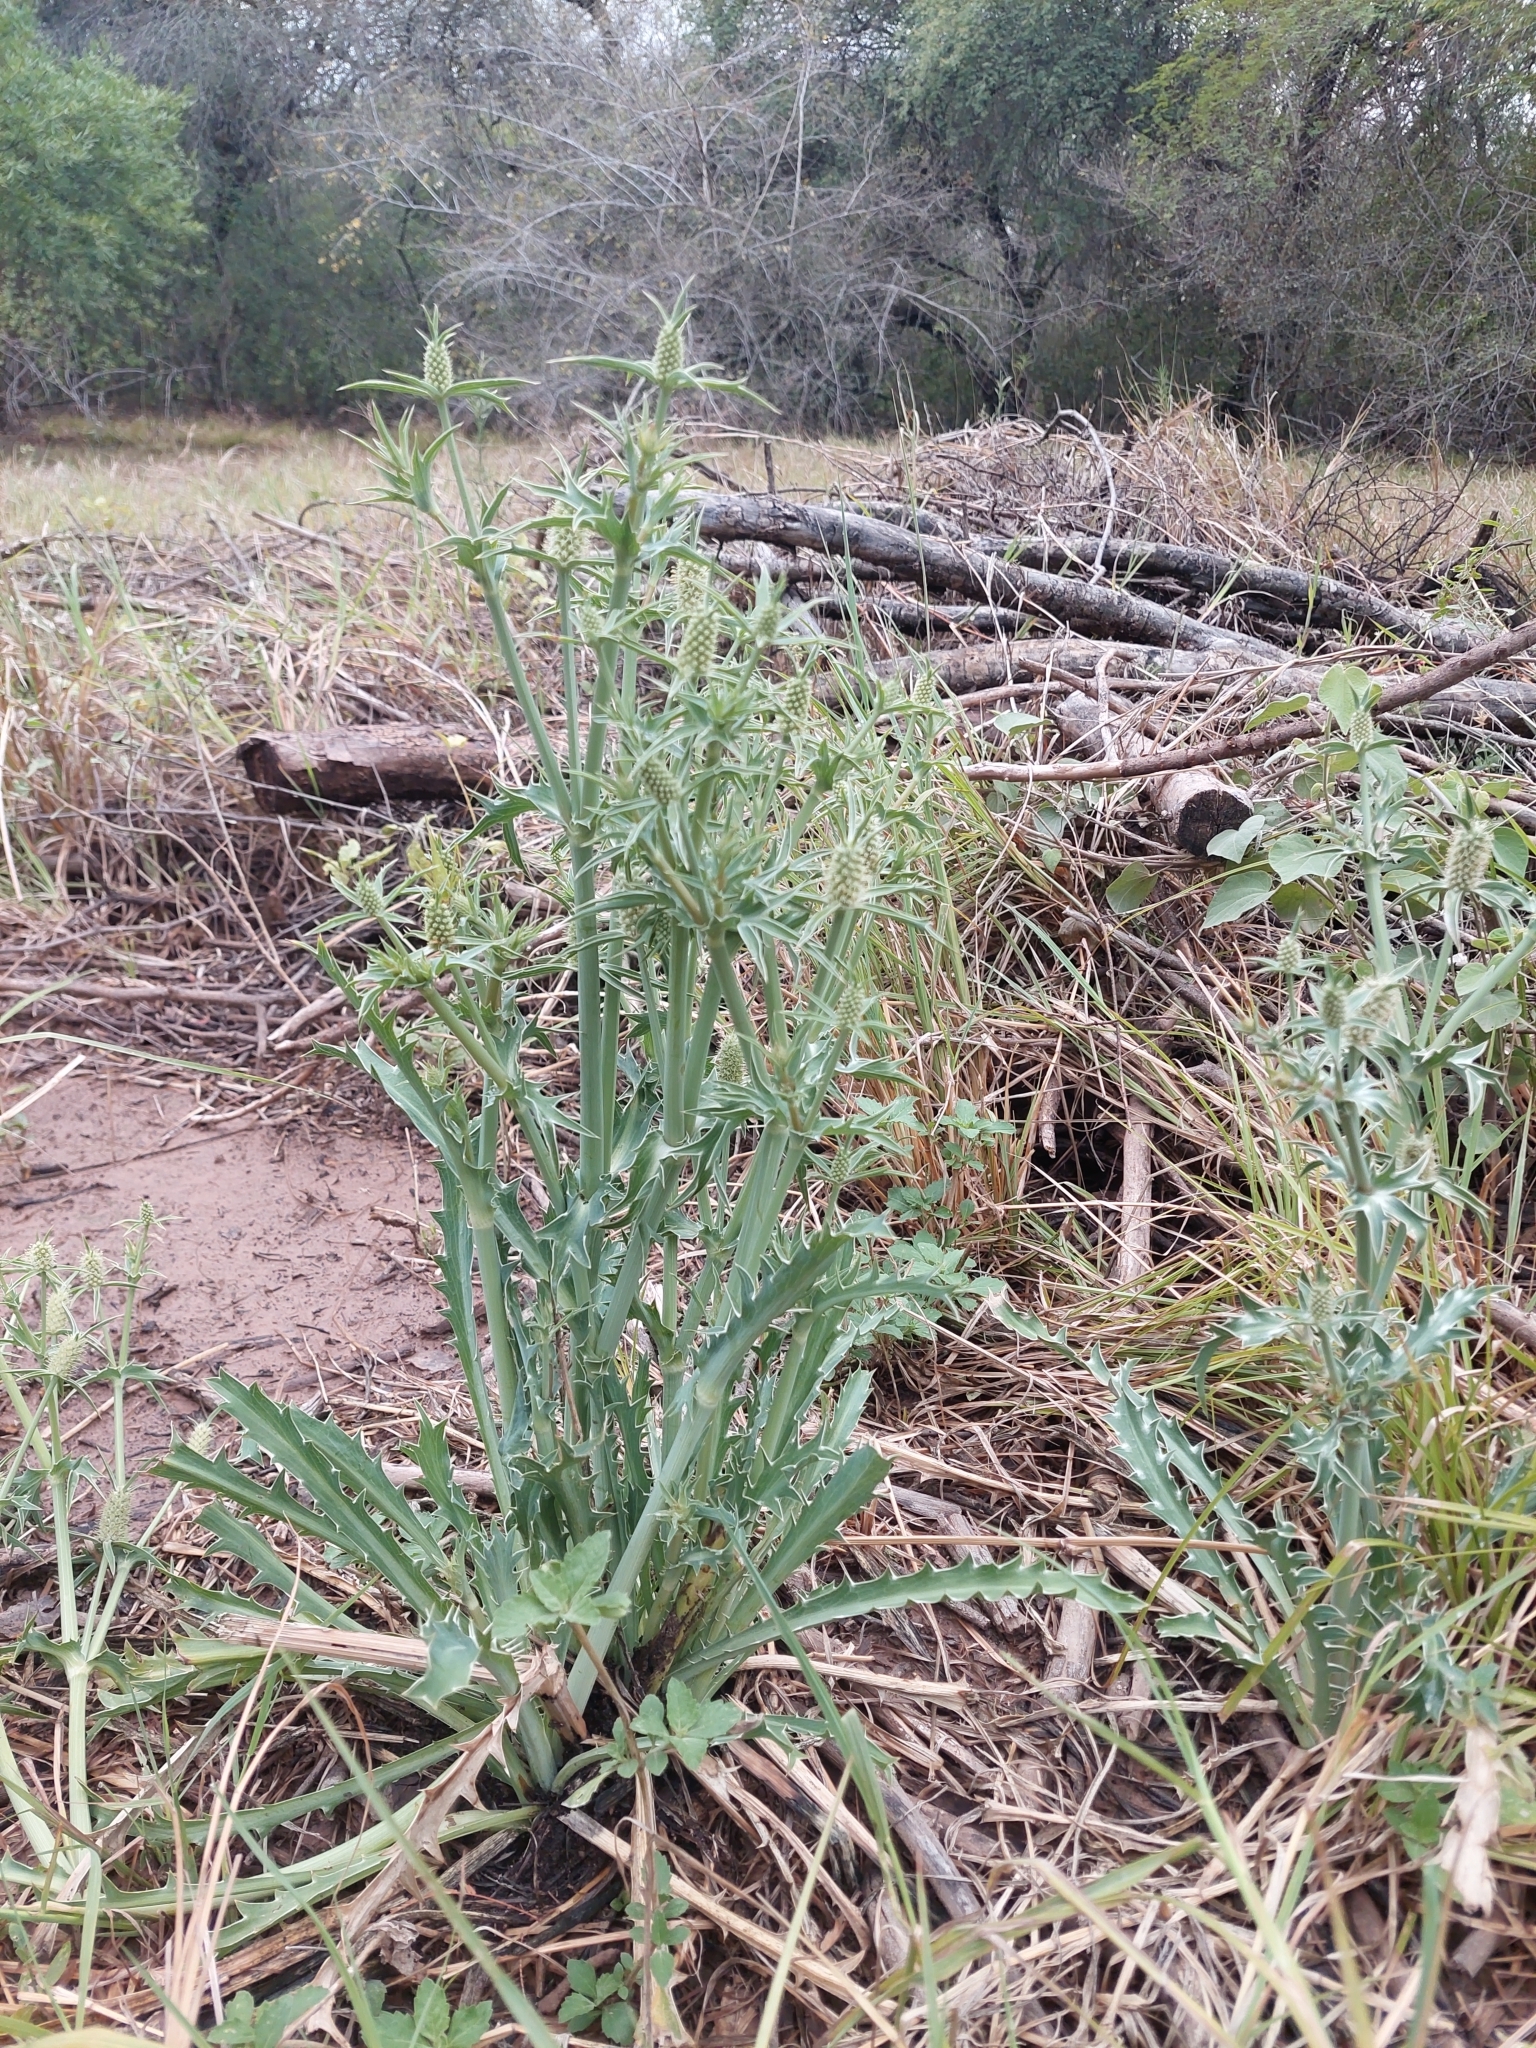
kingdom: Plantae
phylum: Tracheophyta
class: Magnoliopsida
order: Apiales
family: Apiaceae
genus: Eryngium
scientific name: Eryngium coronatum
